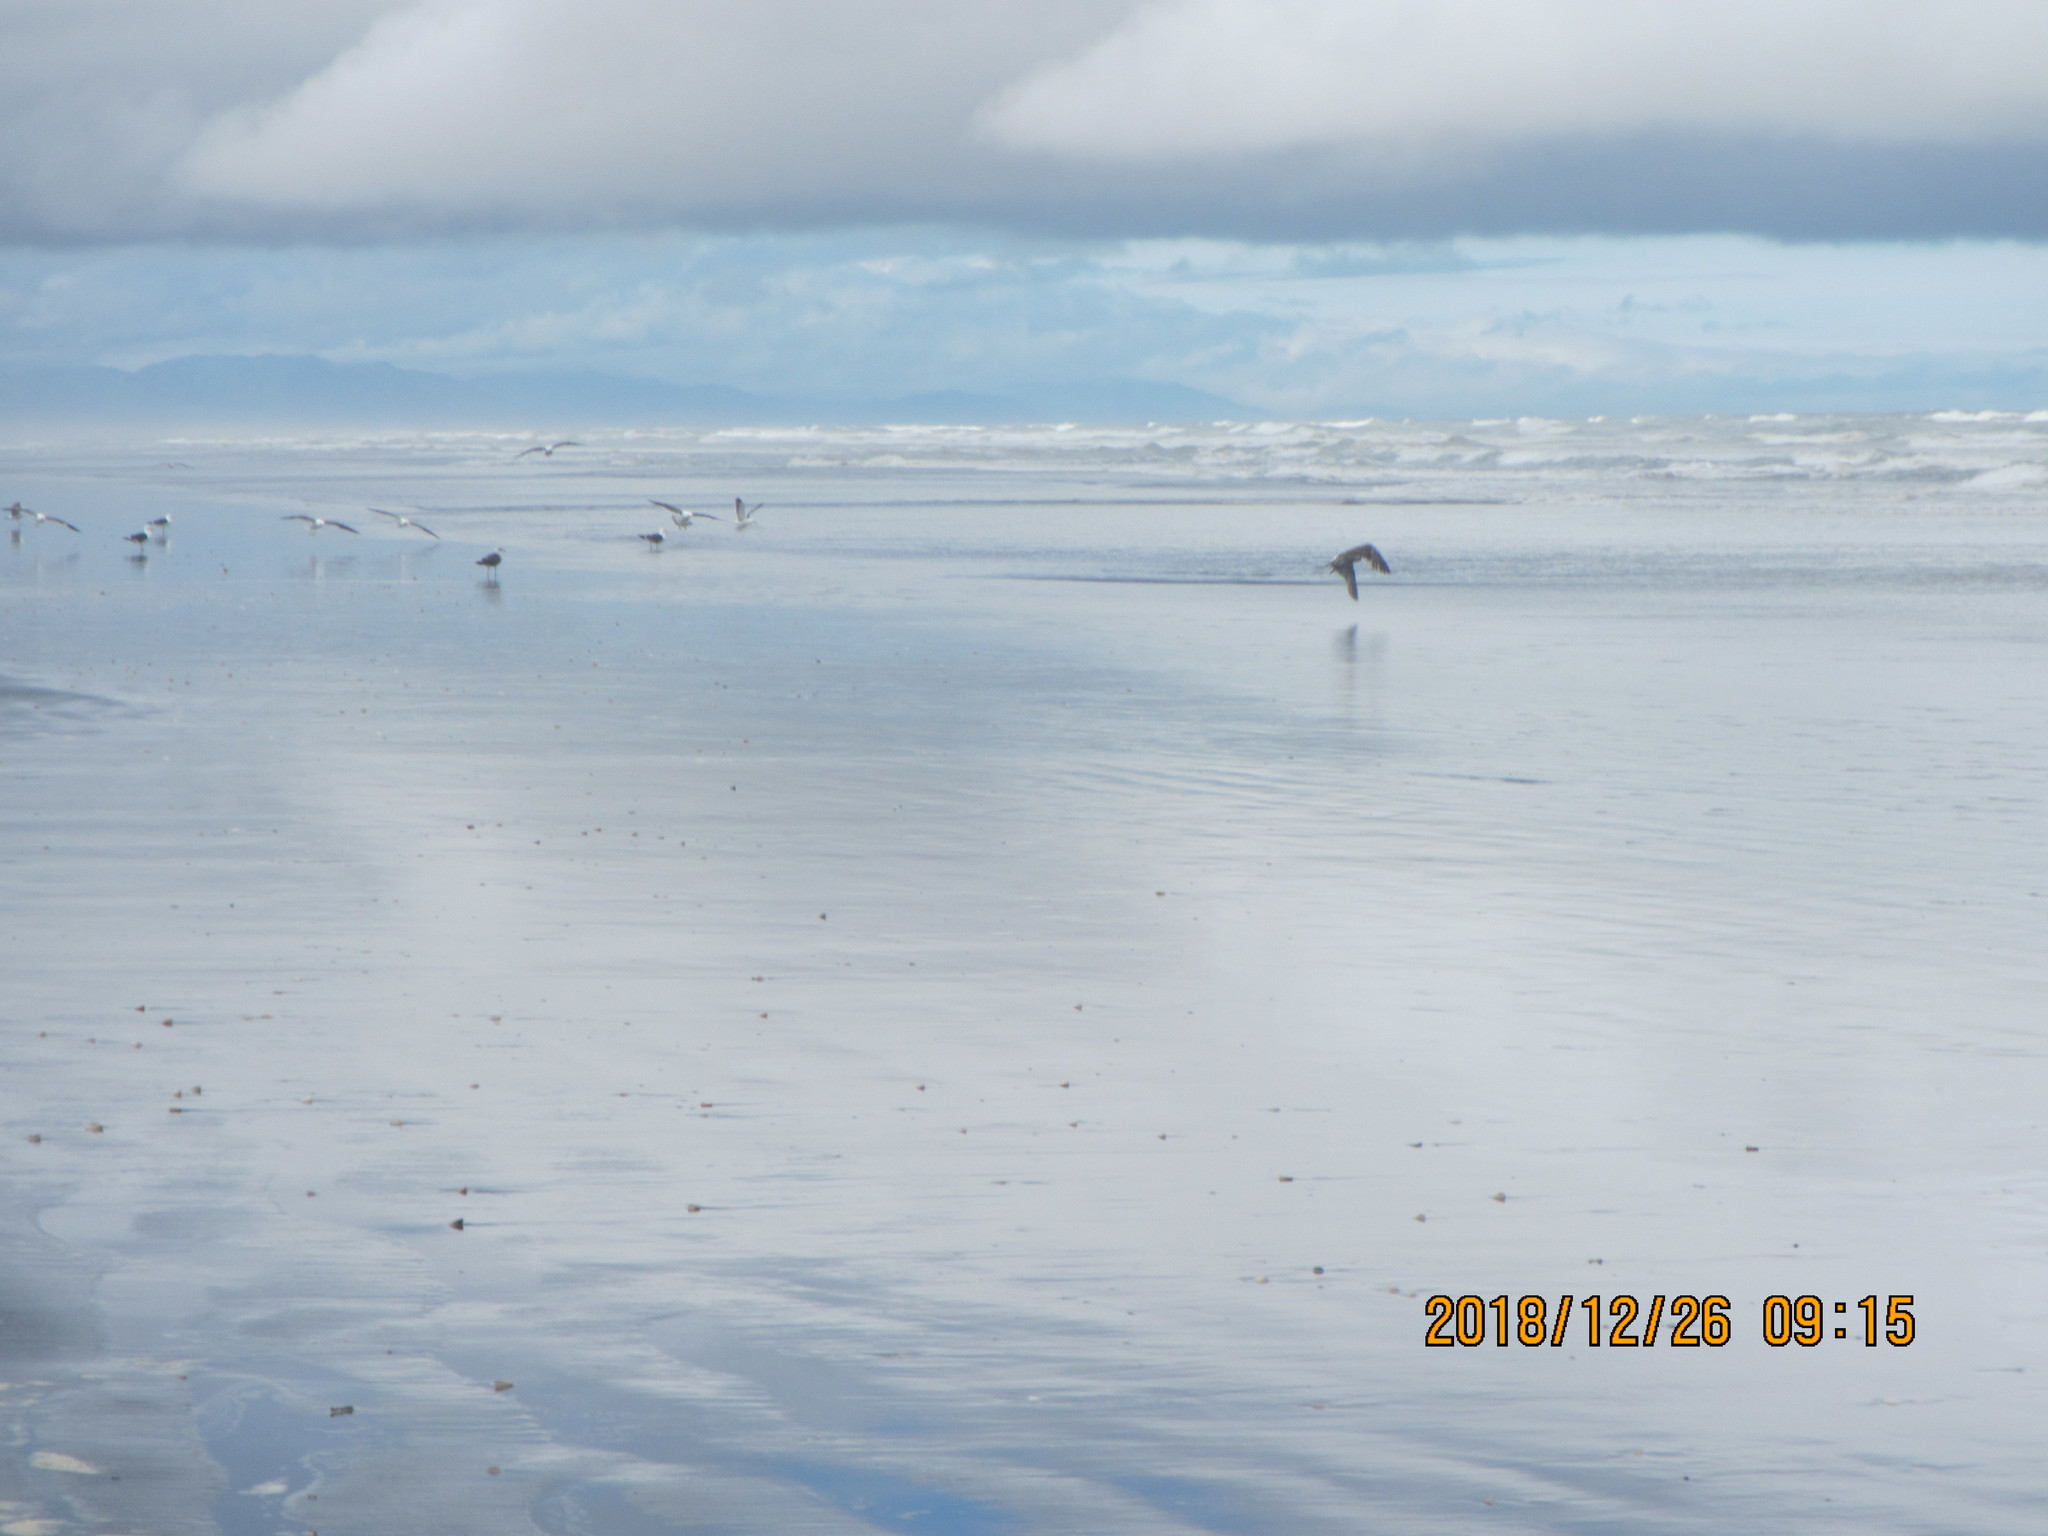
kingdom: Animalia
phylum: Chordata
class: Aves
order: Charadriiformes
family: Laridae
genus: Larus
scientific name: Larus dominicanus
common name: Kelp gull
